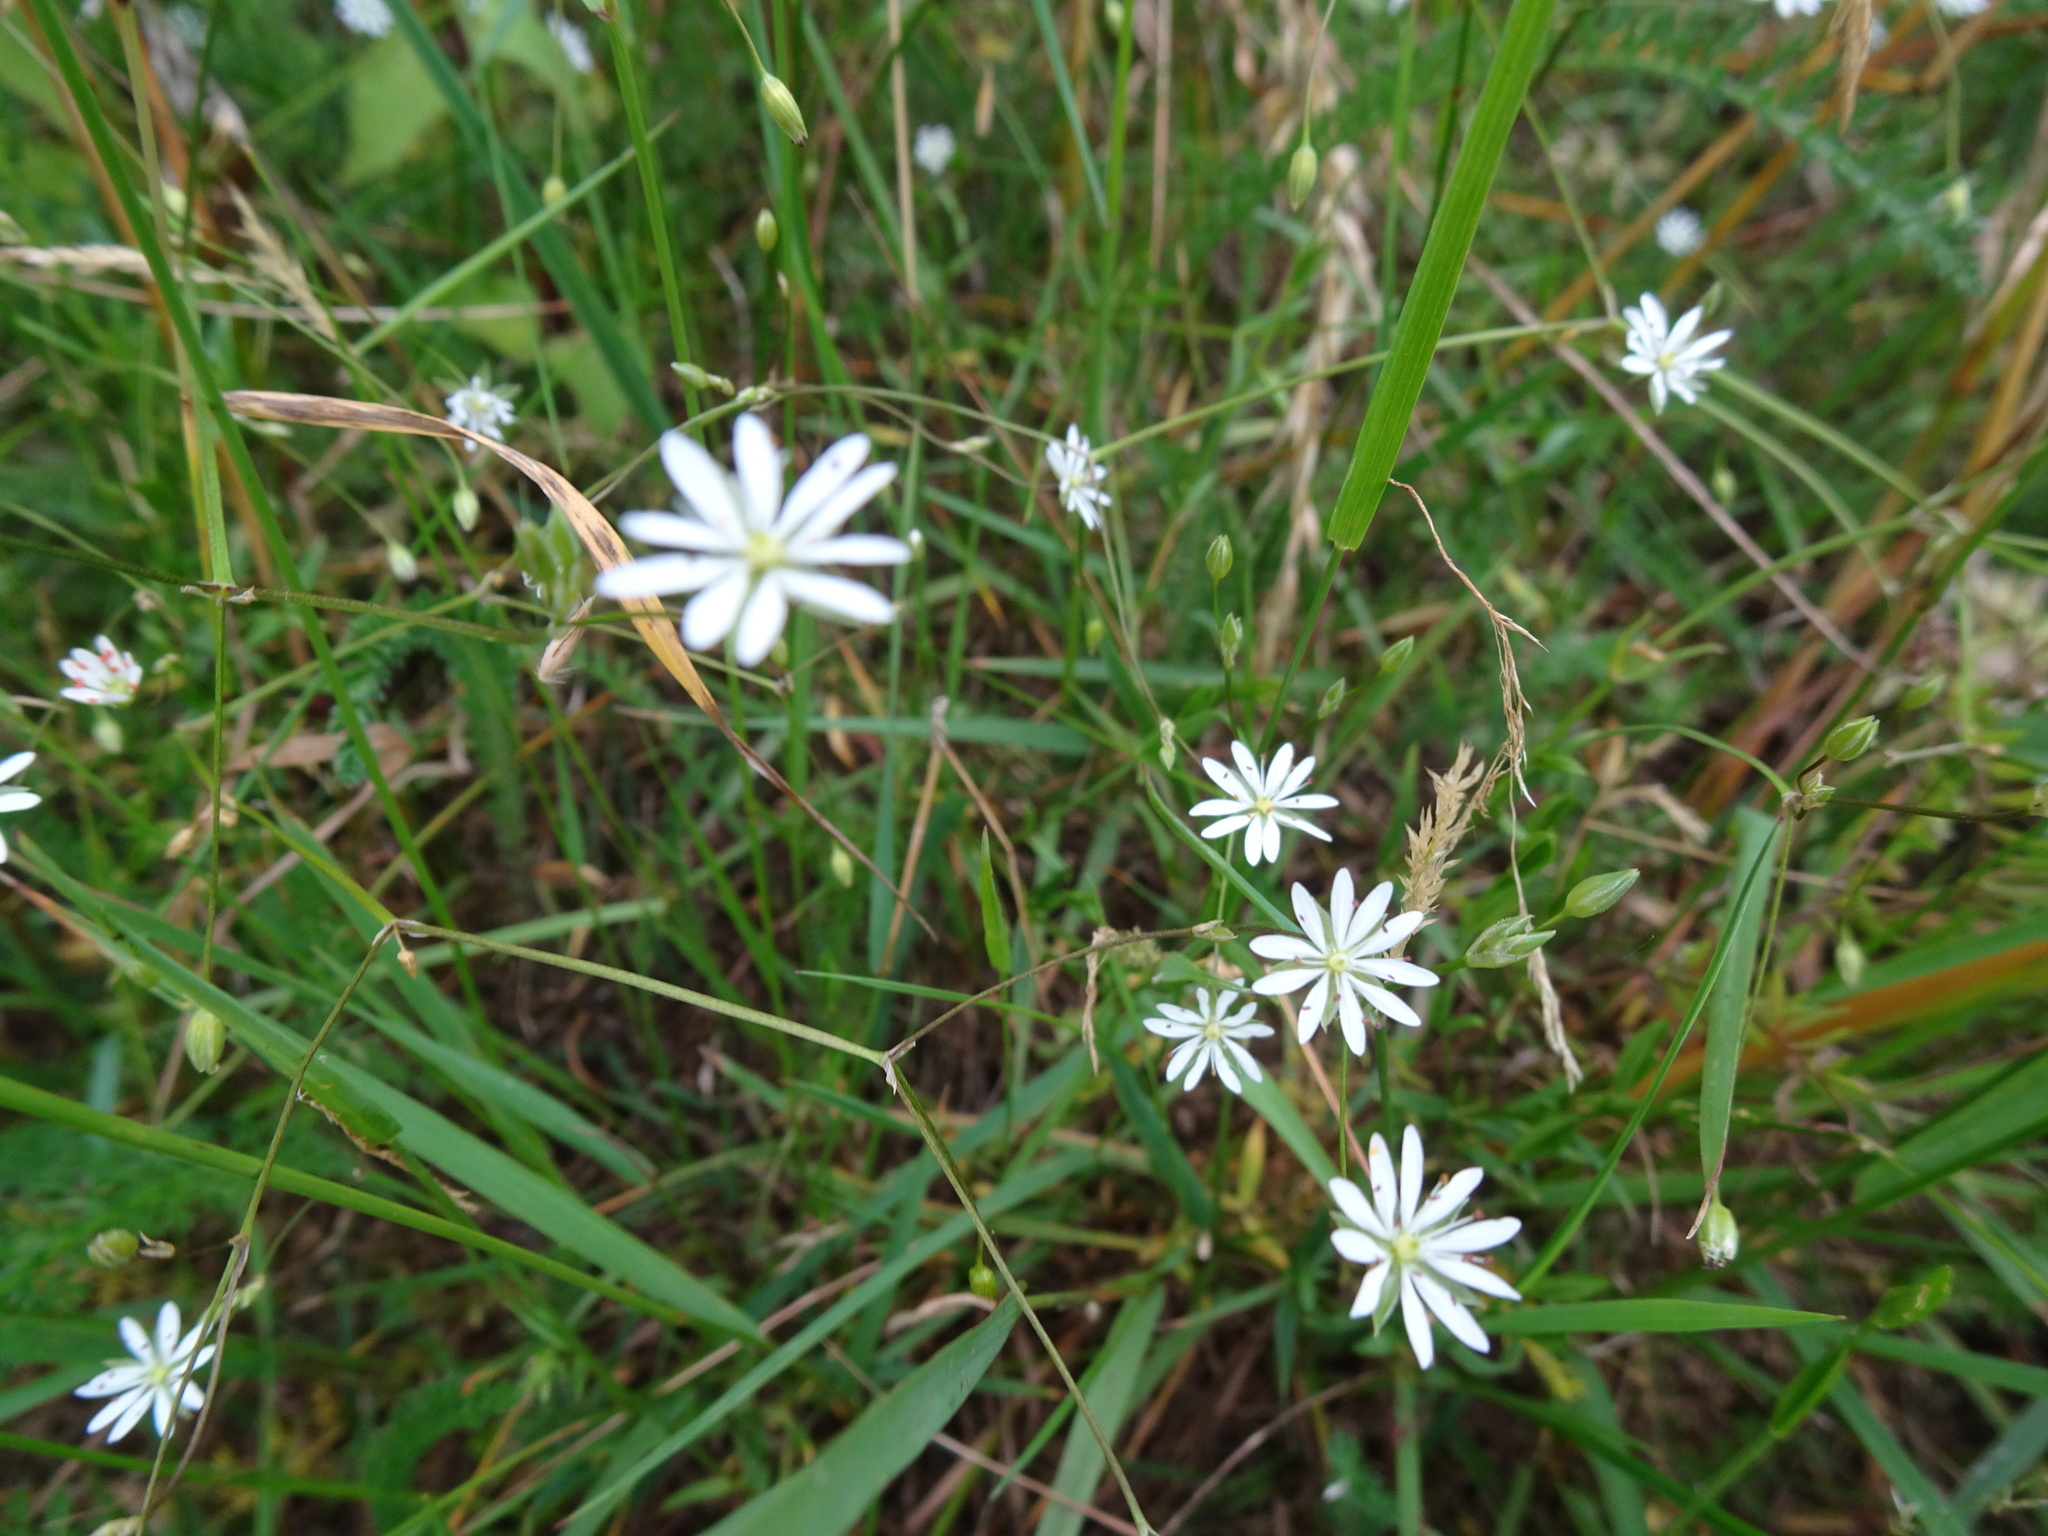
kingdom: Plantae
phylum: Tracheophyta
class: Magnoliopsida
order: Caryophyllales
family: Caryophyllaceae
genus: Stellaria
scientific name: Stellaria graminea
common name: Grass-like starwort
